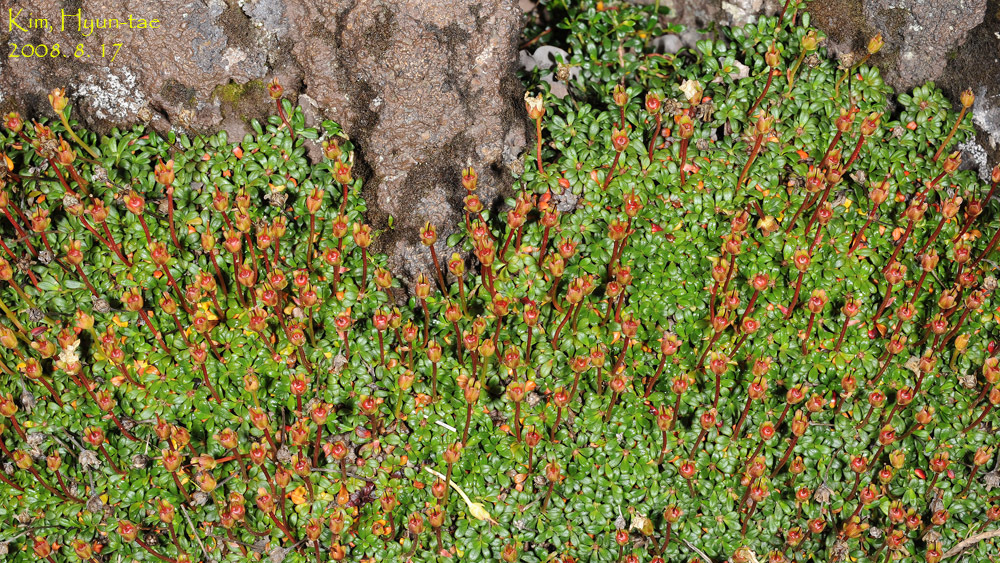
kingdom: Plantae
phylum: Tracheophyta
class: Magnoliopsida
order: Ericales
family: Diapensiaceae
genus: Diapensia
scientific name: Diapensia obovata
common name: Alaska diapensia
